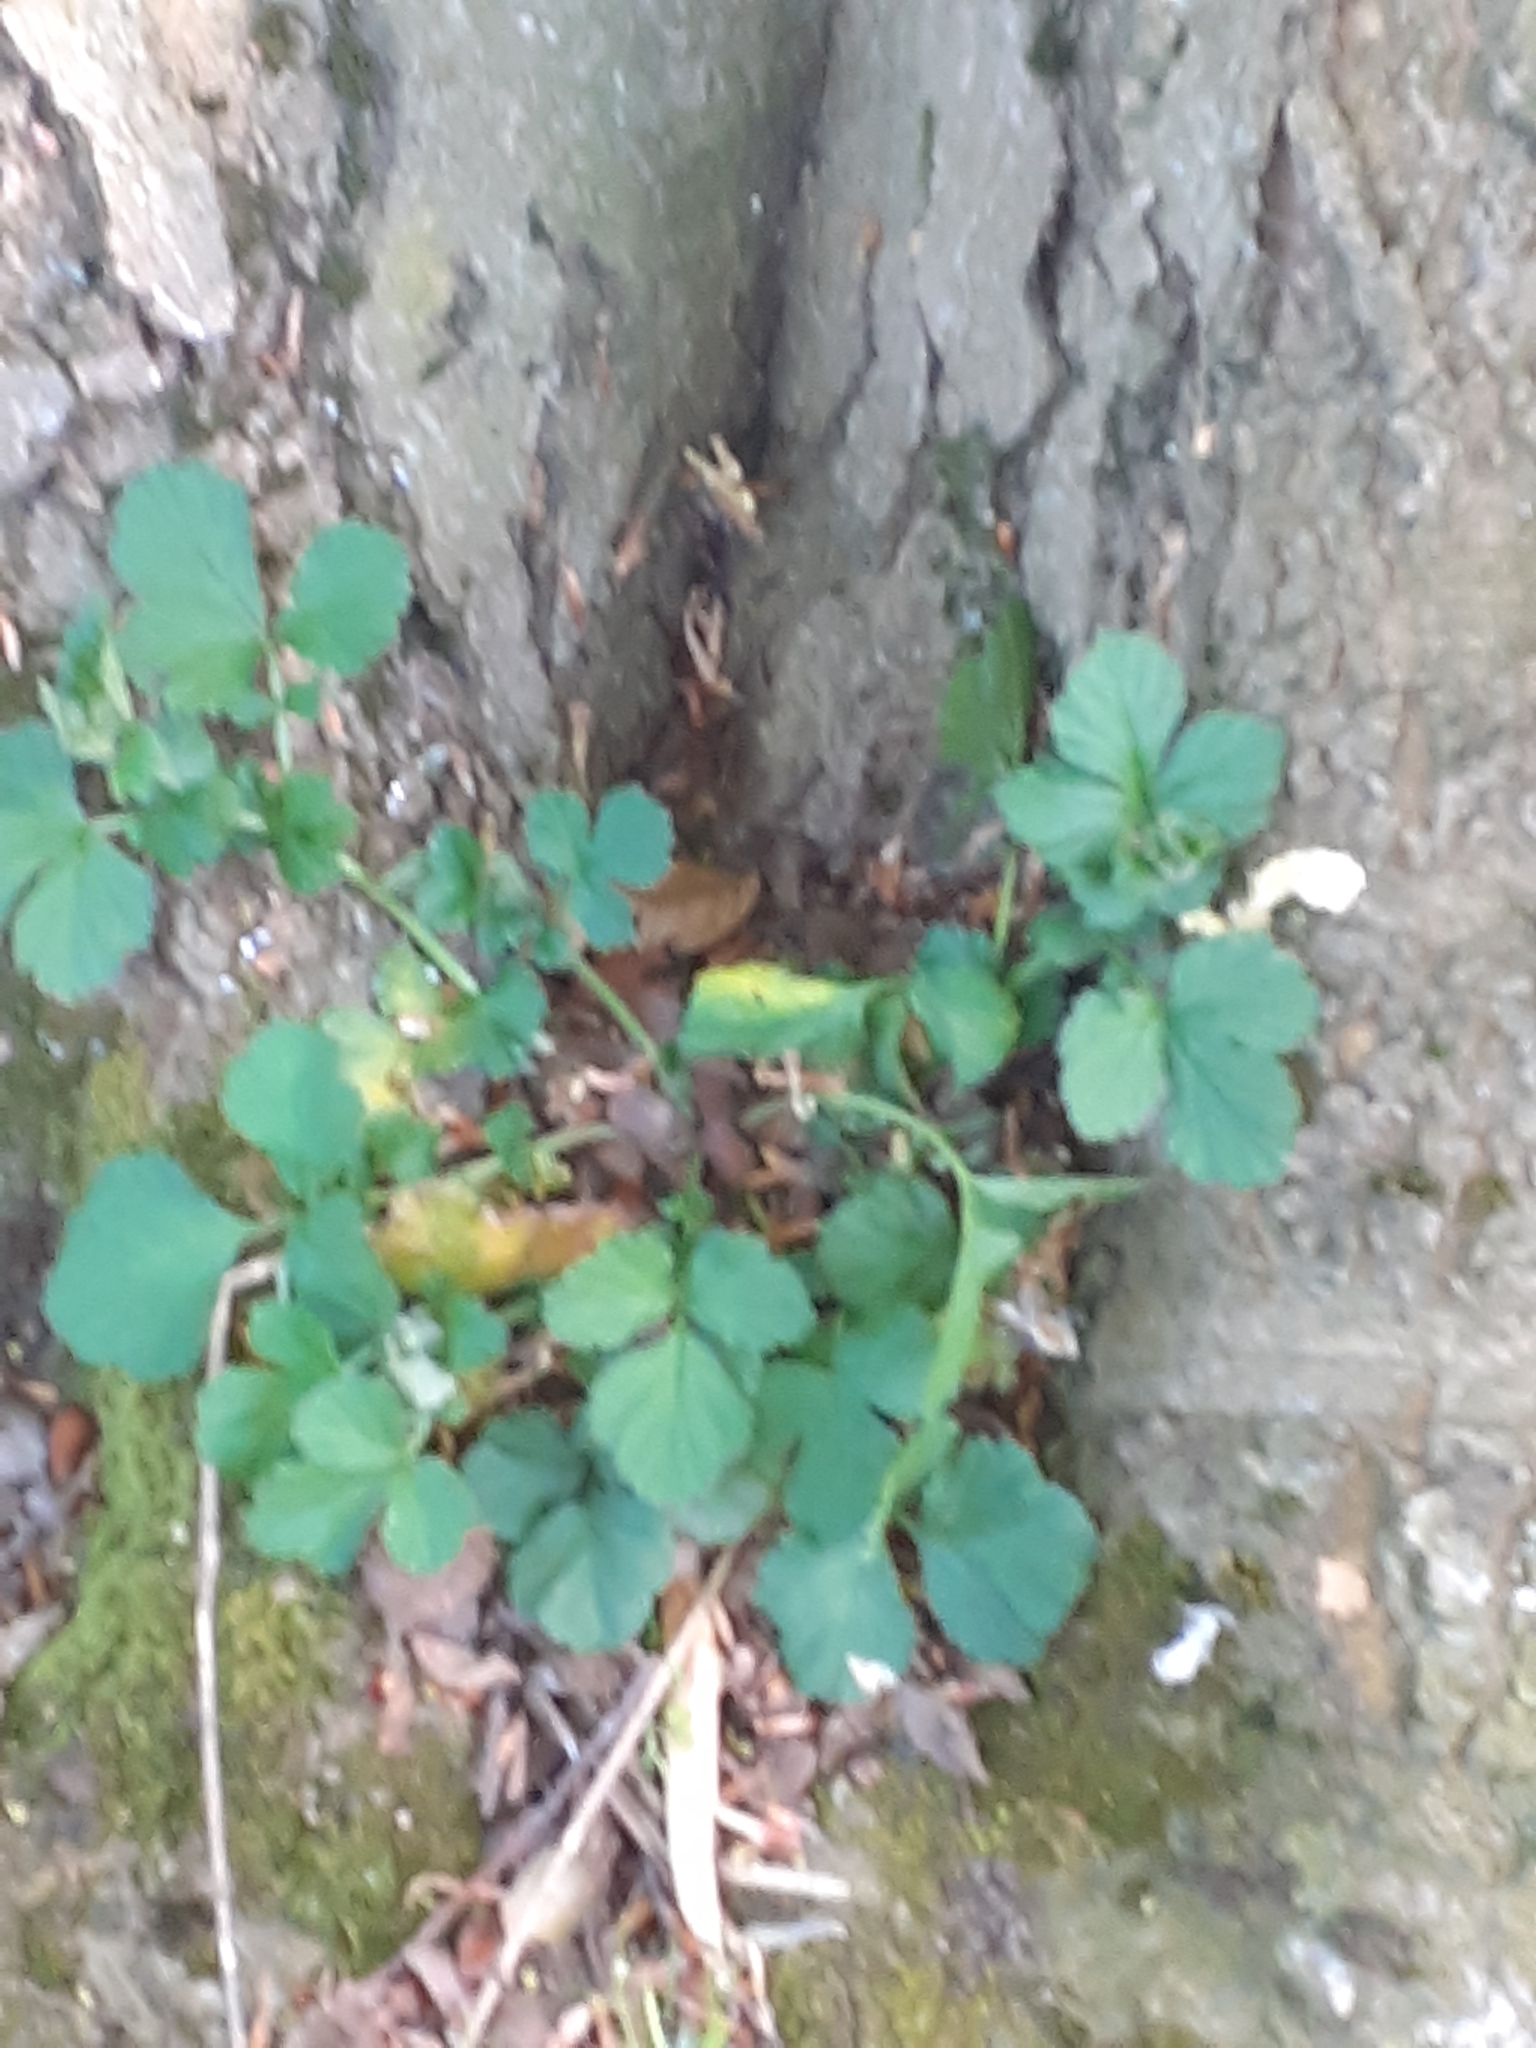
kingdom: Plantae
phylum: Tracheophyta
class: Magnoliopsida
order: Rosales
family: Rosaceae
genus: Geum
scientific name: Geum urbanum
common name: Wood avens
